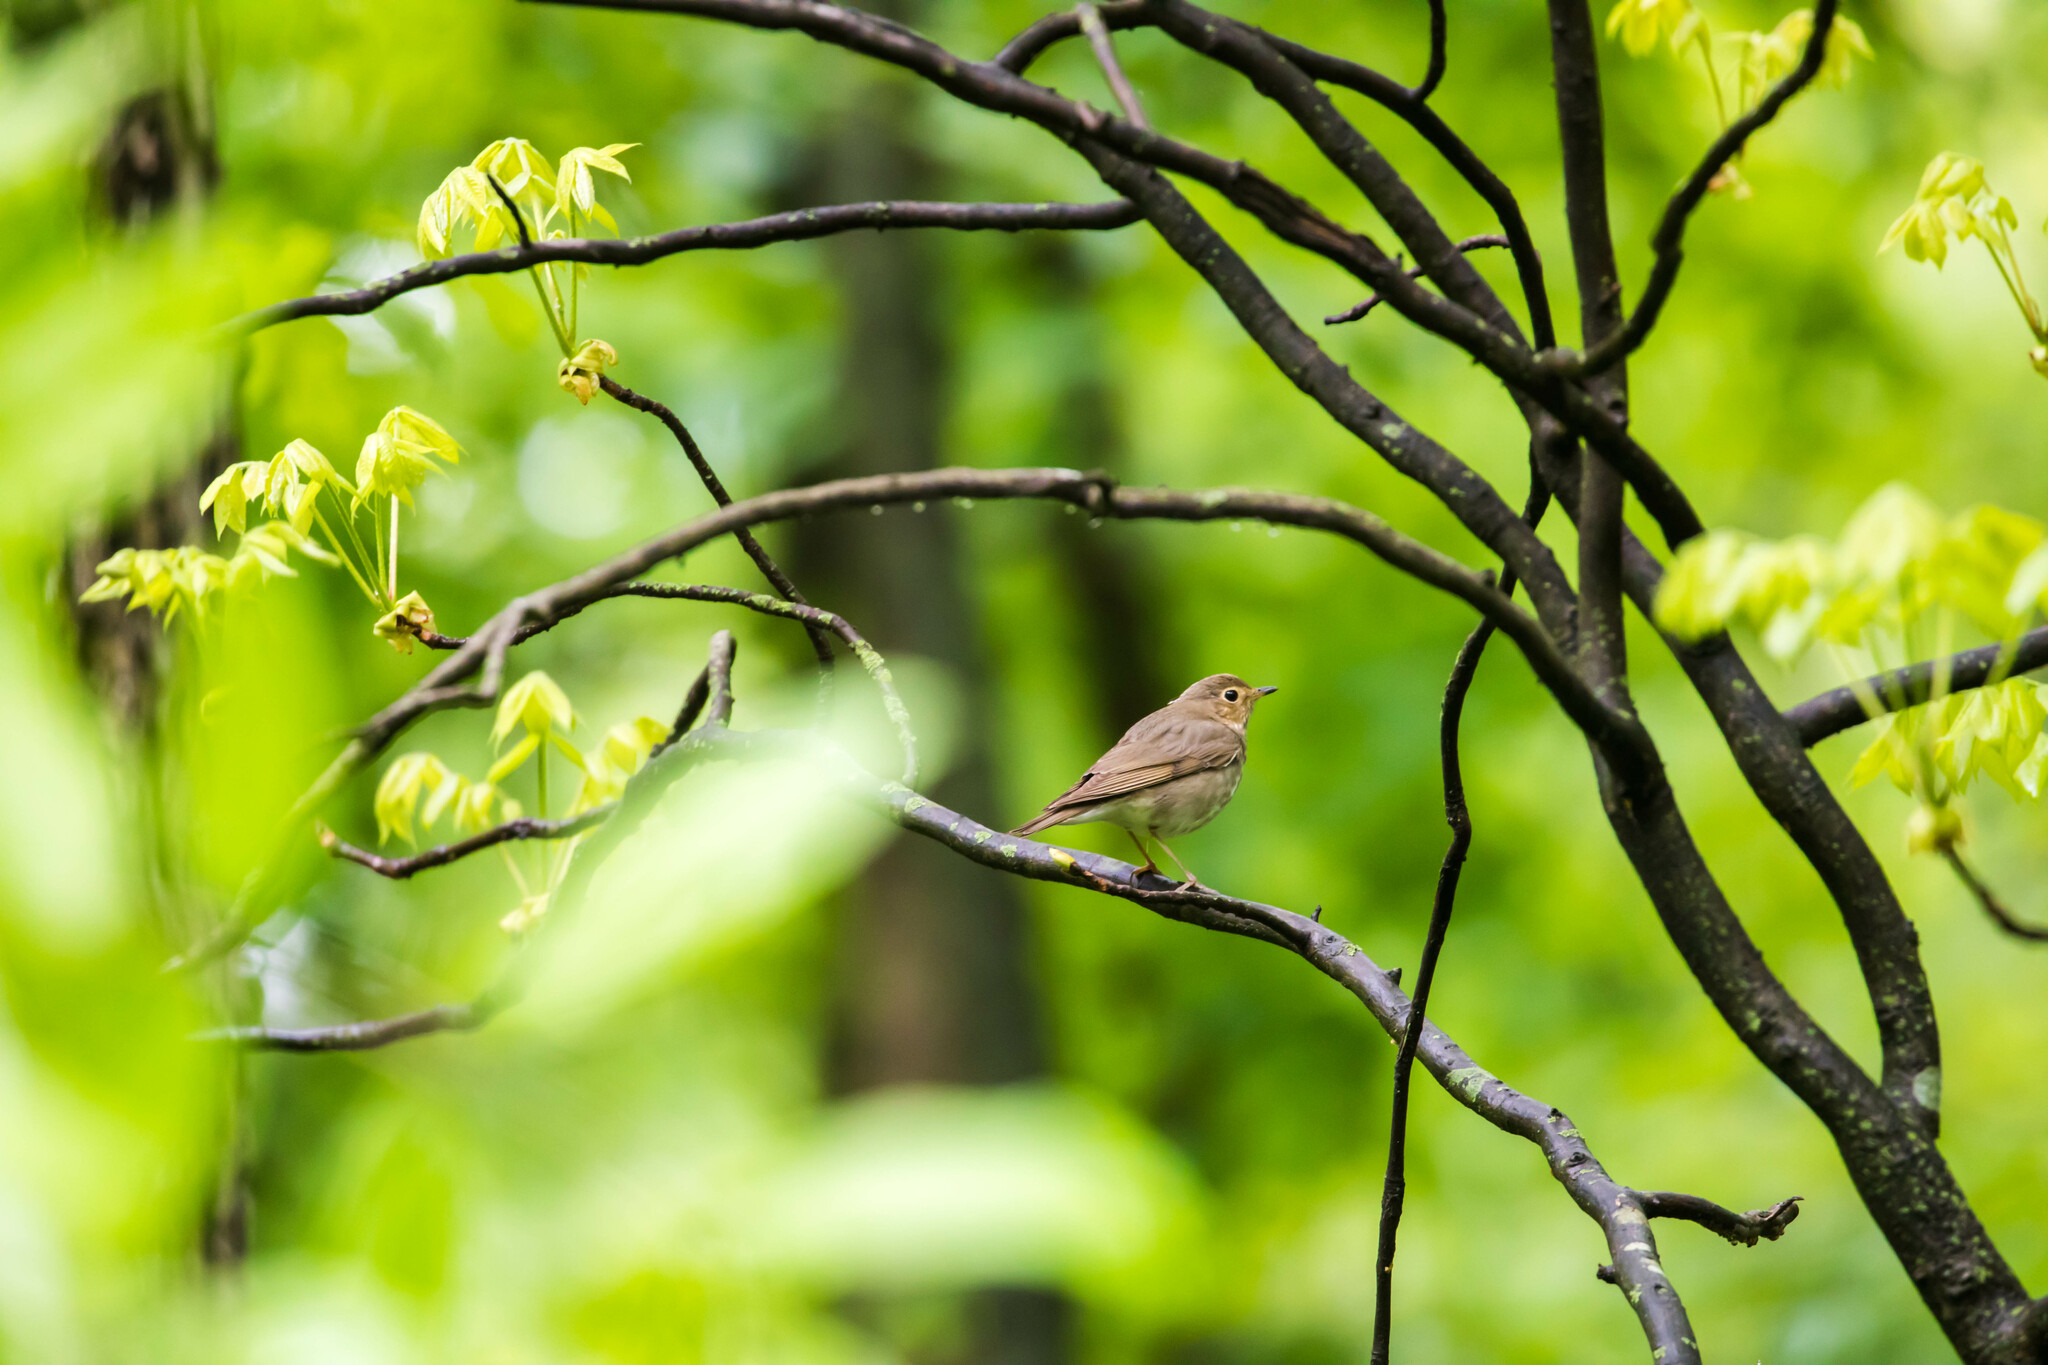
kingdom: Animalia
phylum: Chordata
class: Aves
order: Passeriformes
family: Turdidae
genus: Catharus
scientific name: Catharus ustulatus
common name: Swainson's thrush
